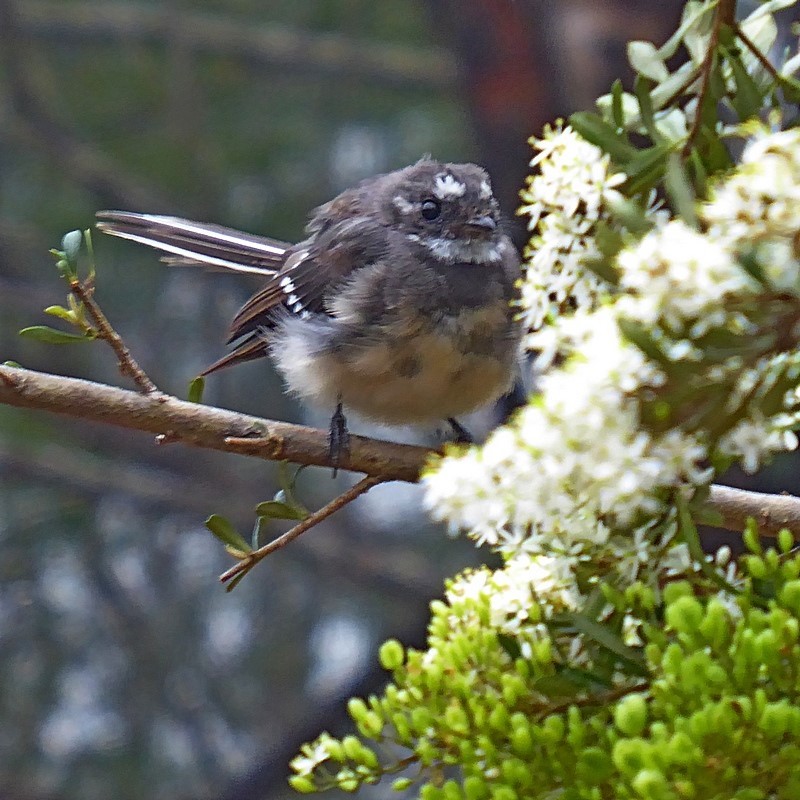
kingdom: Animalia
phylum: Chordata
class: Aves
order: Passeriformes
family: Rhipiduridae
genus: Rhipidura
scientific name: Rhipidura albiscapa
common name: Grey fantail
